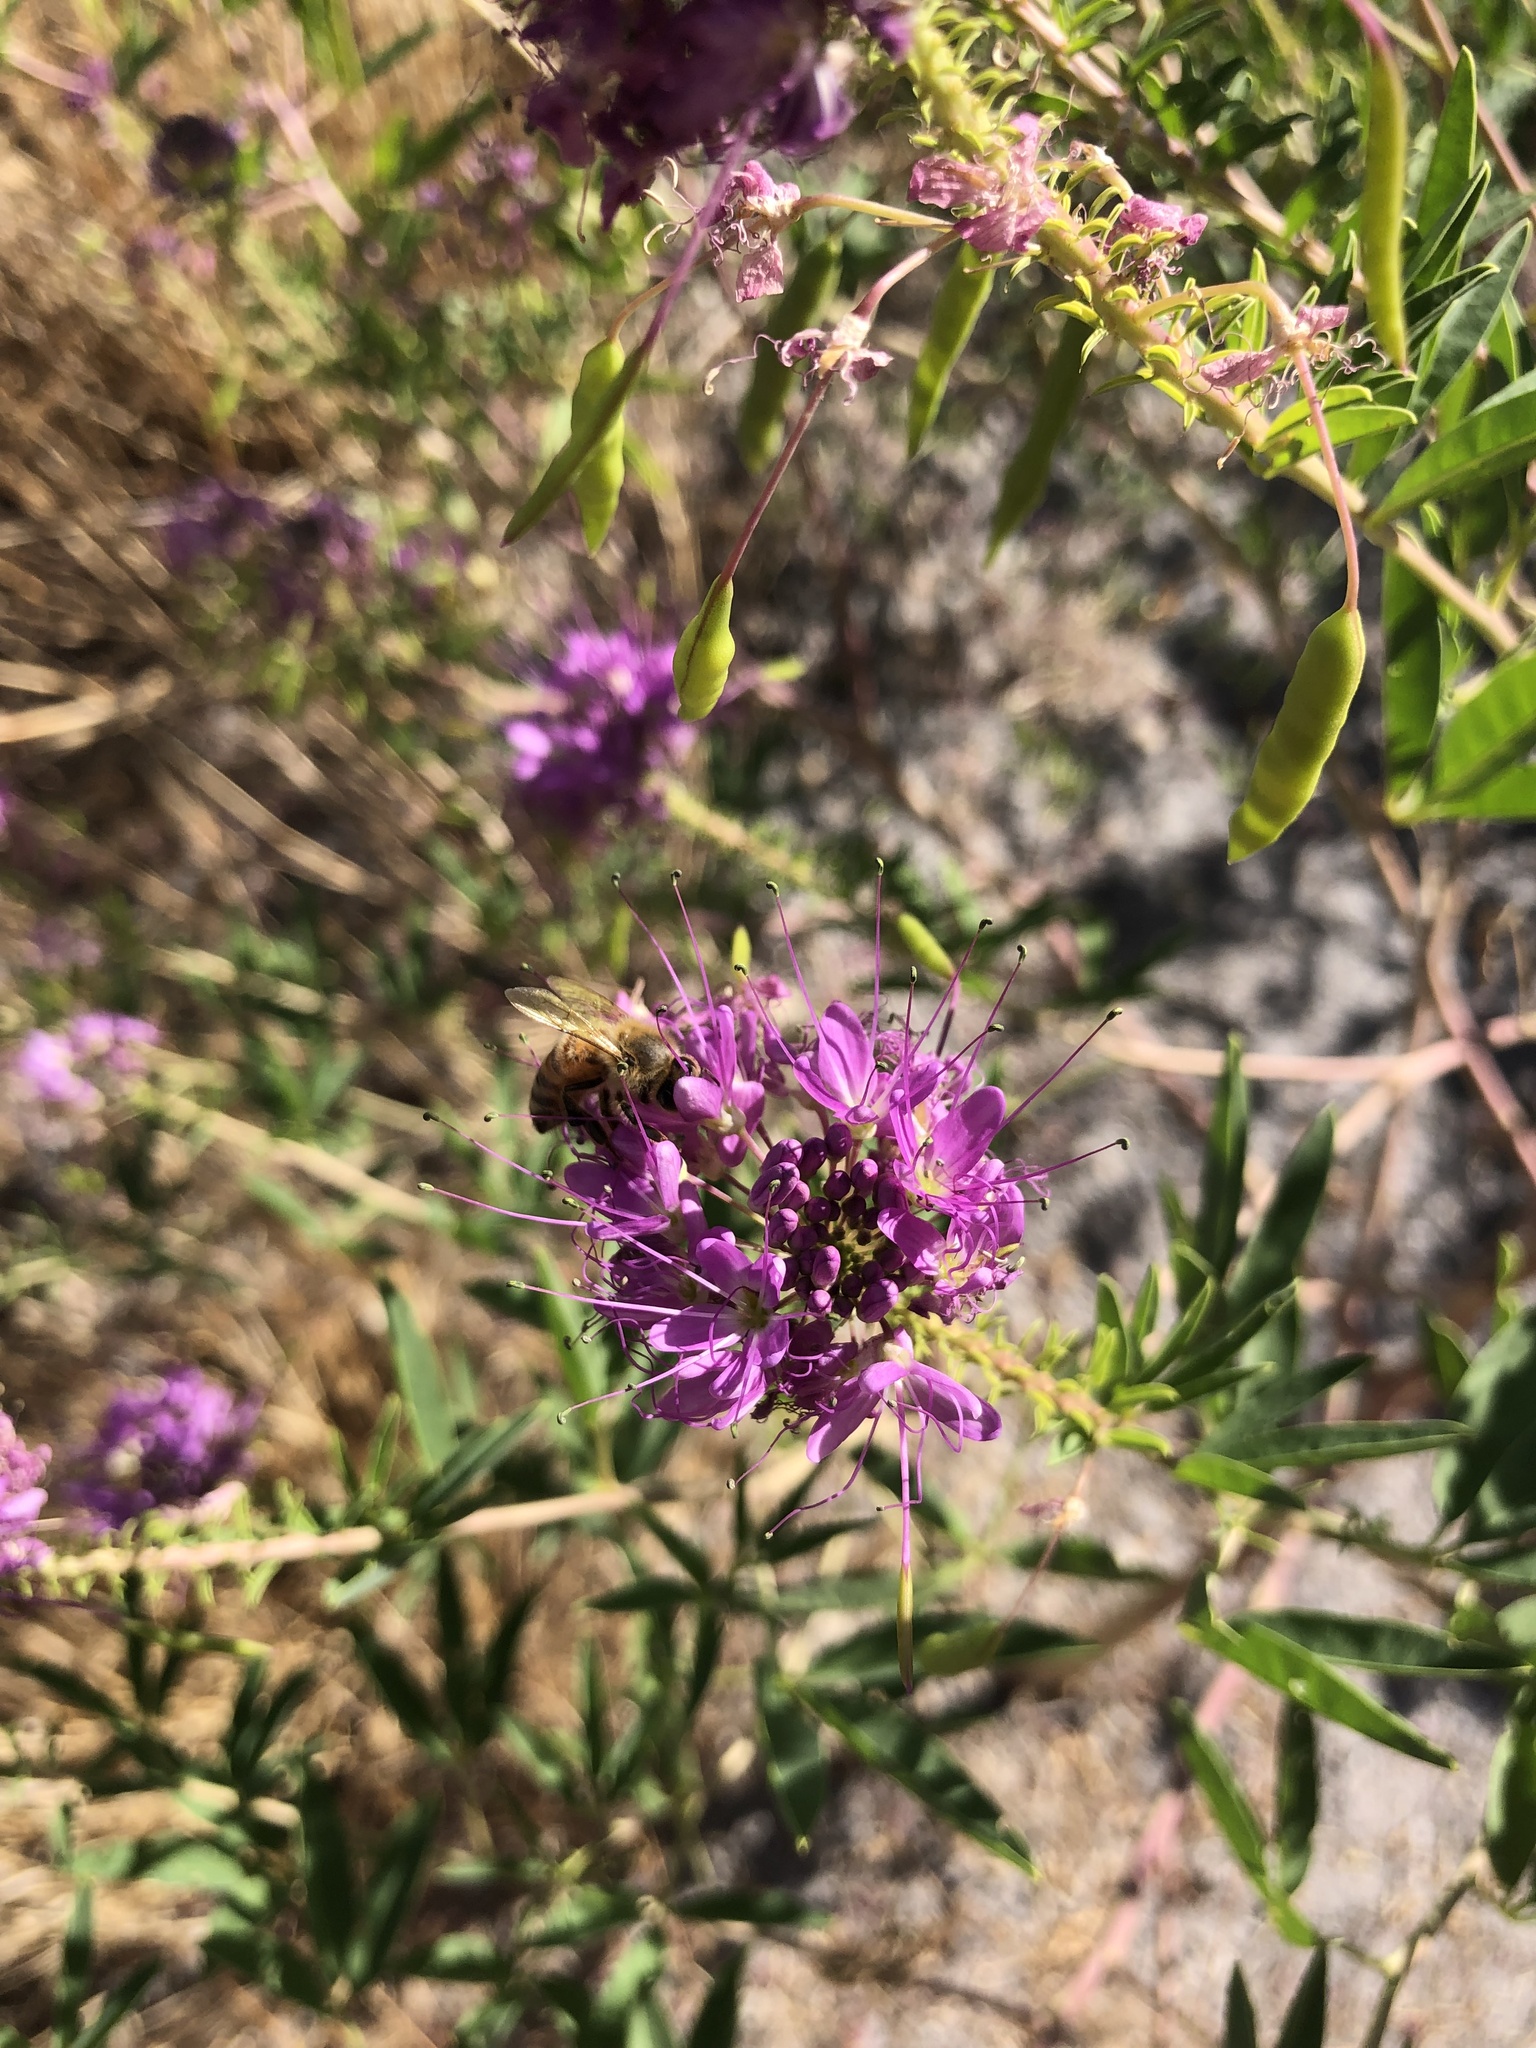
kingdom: Plantae
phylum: Tracheophyta
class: Magnoliopsida
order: Brassicales
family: Cleomaceae
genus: Cleomella
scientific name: Cleomella serrulata
